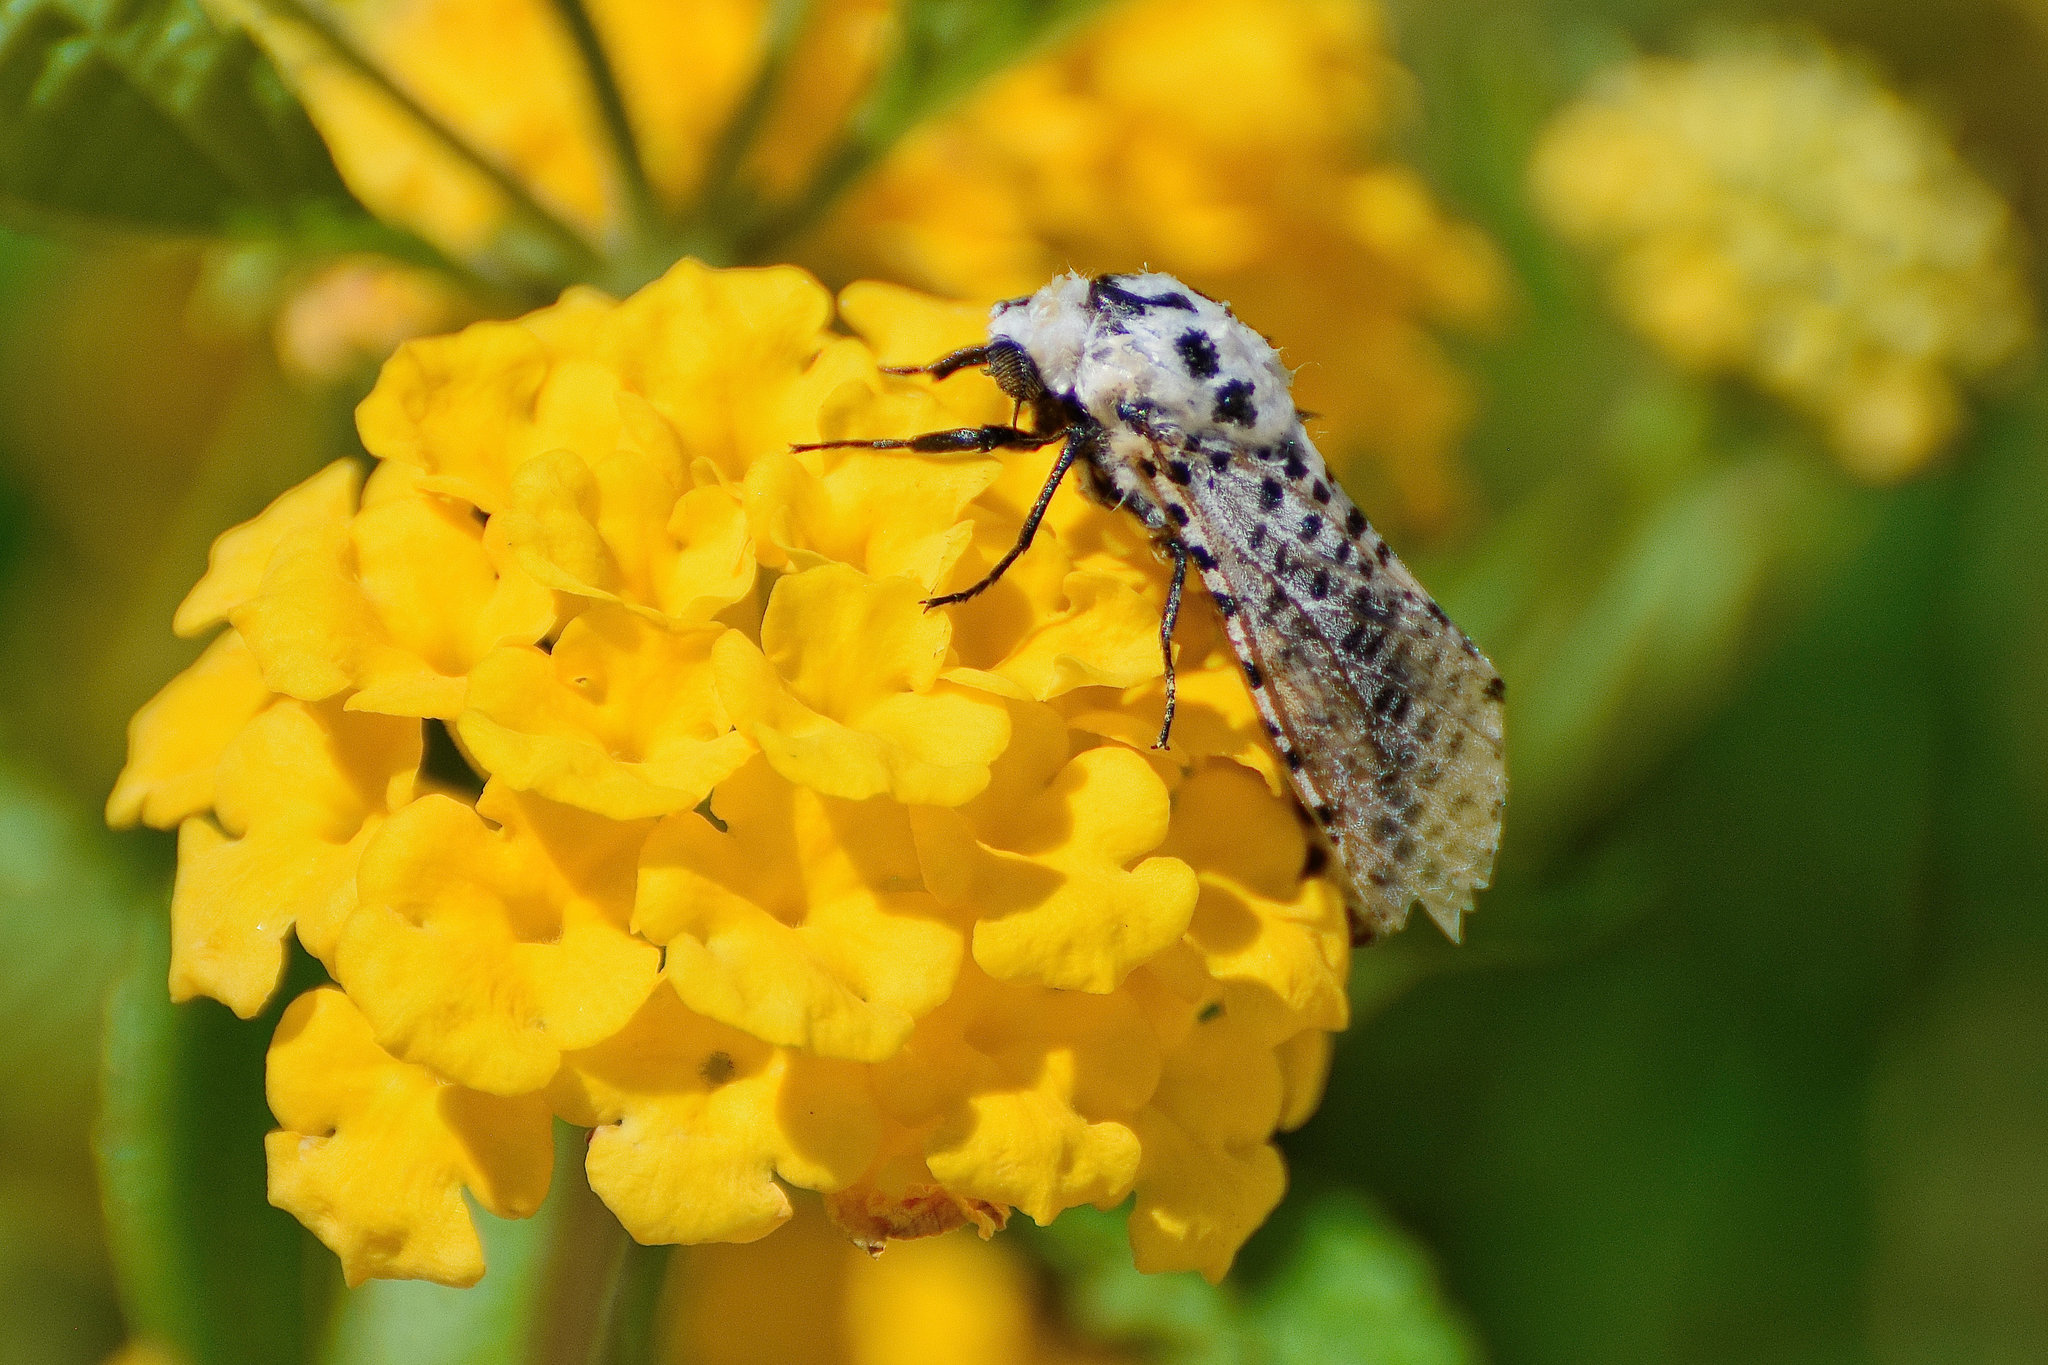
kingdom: Animalia
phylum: Arthropoda
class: Insecta
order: Lepidoptera
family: Cossidae
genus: Zeuzera
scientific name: Zeuzera pyrina
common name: Leopard moth
